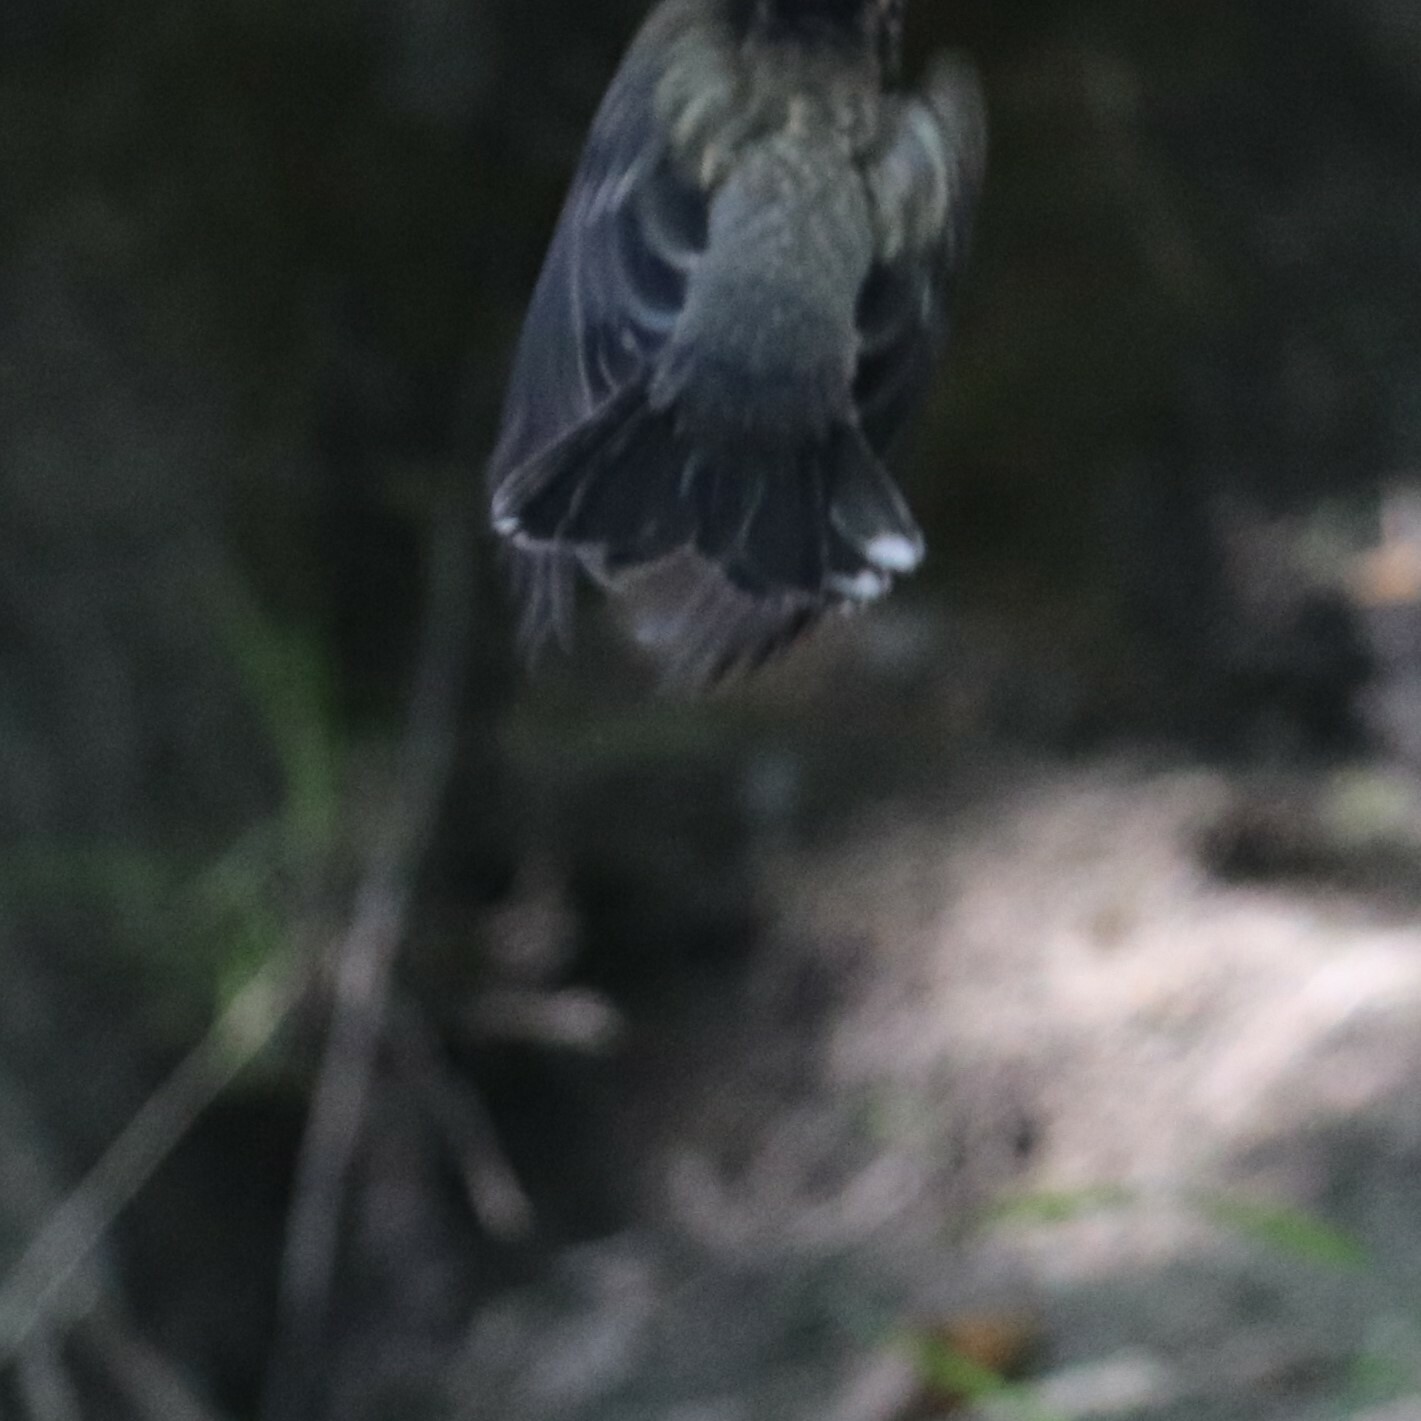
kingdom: Animalia
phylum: Chordata
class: Aves
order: Passeriformes
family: Turdidae
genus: Turdus
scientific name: Turdus migratorius
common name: American robin
